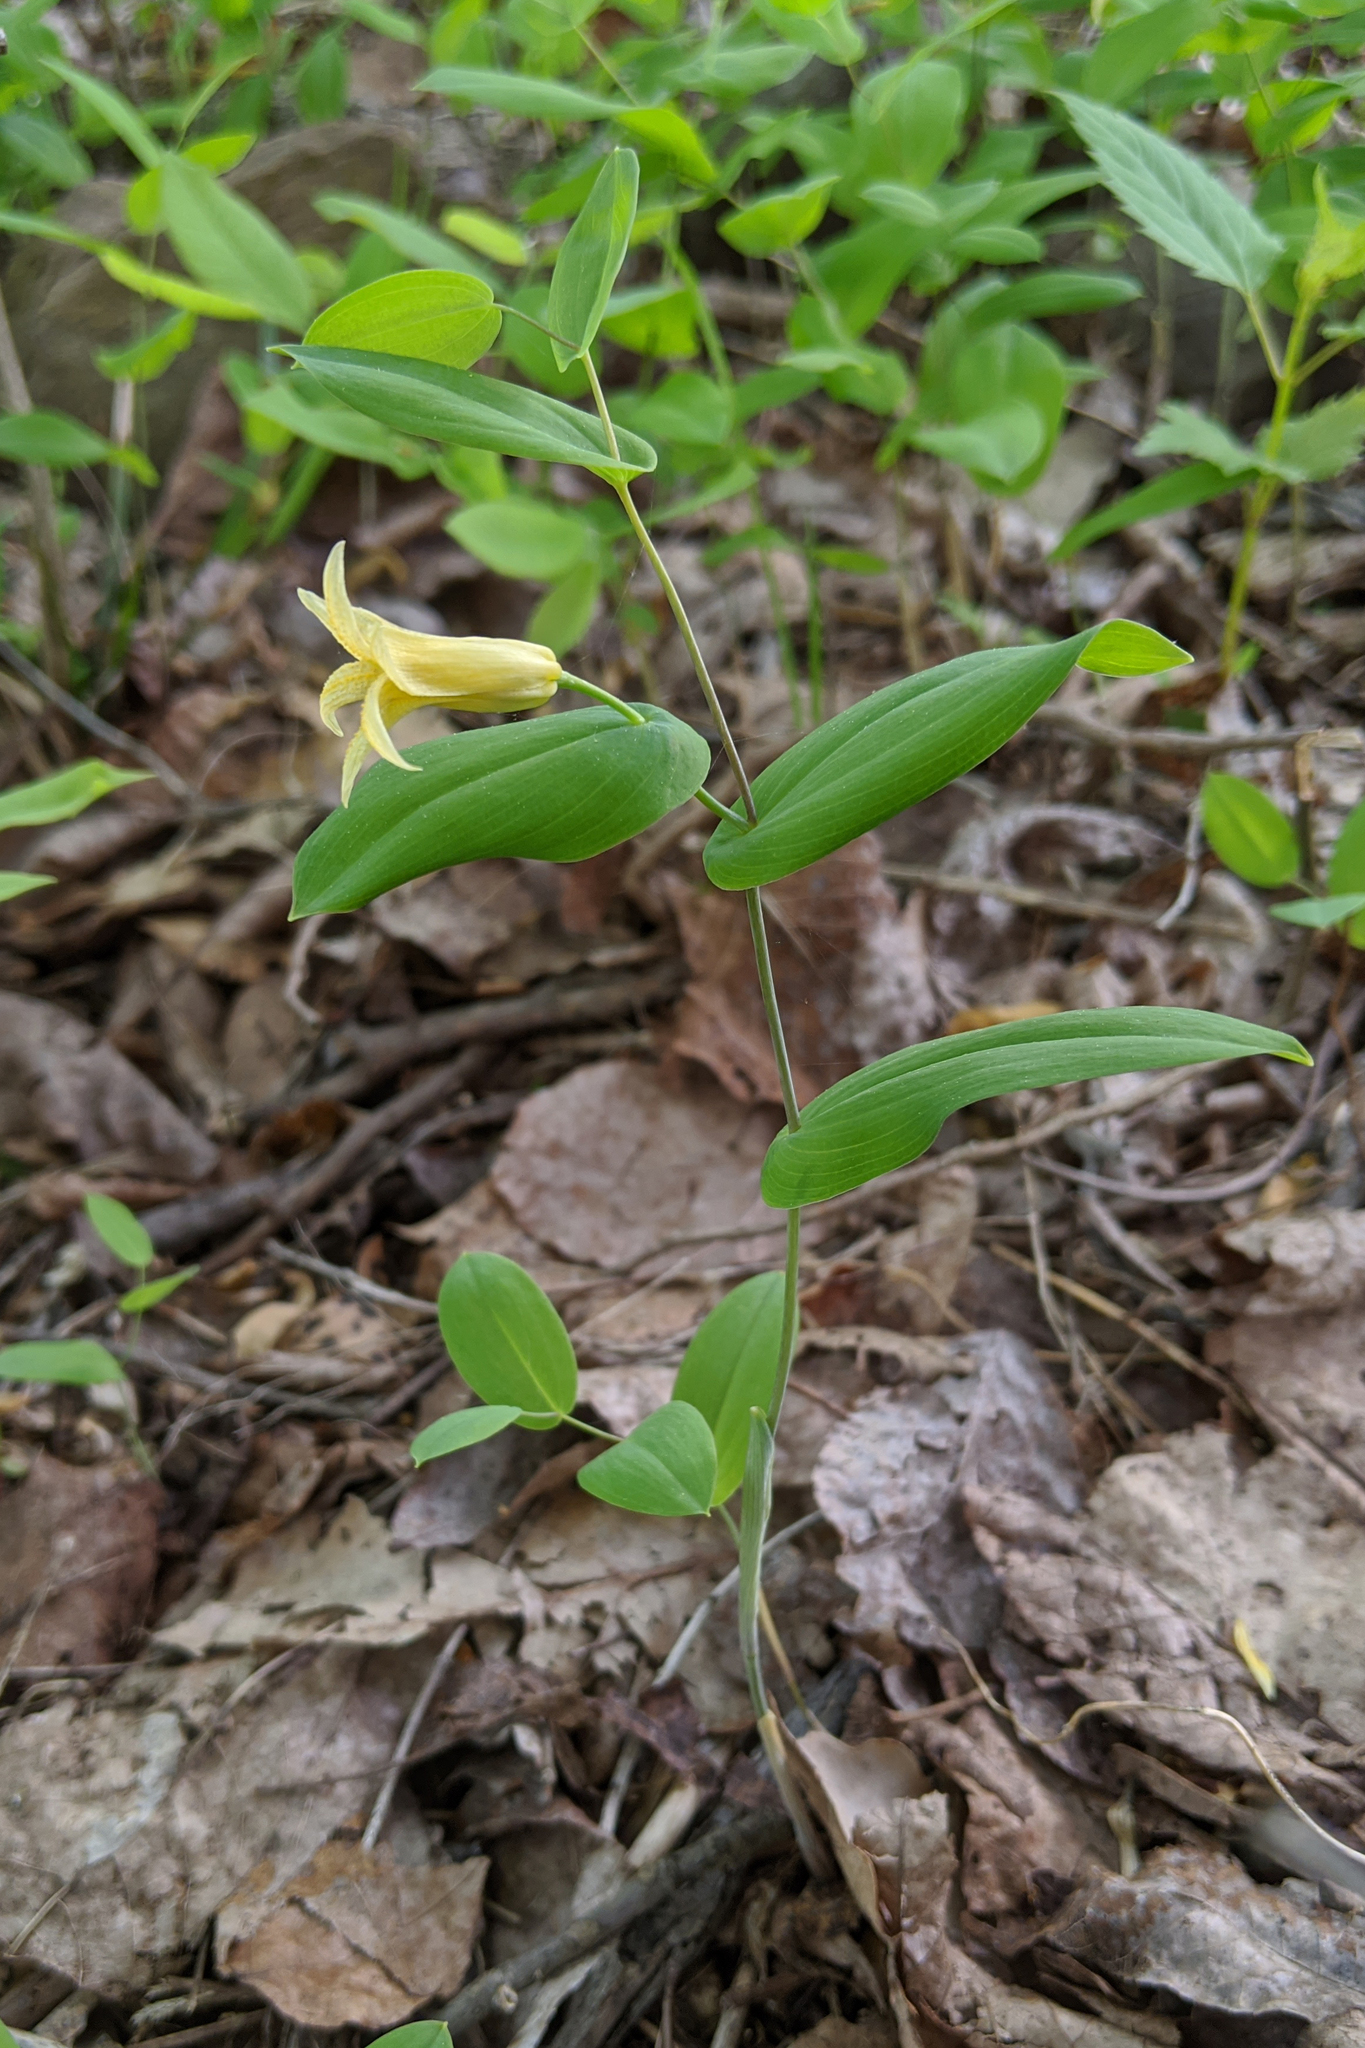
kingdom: Plantae
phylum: Tracheophyta
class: Liliopsida
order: Liliales
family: Colchicaceae
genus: Uvularia
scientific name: Uvularia perfoliata
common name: Perfoliate bellwort
